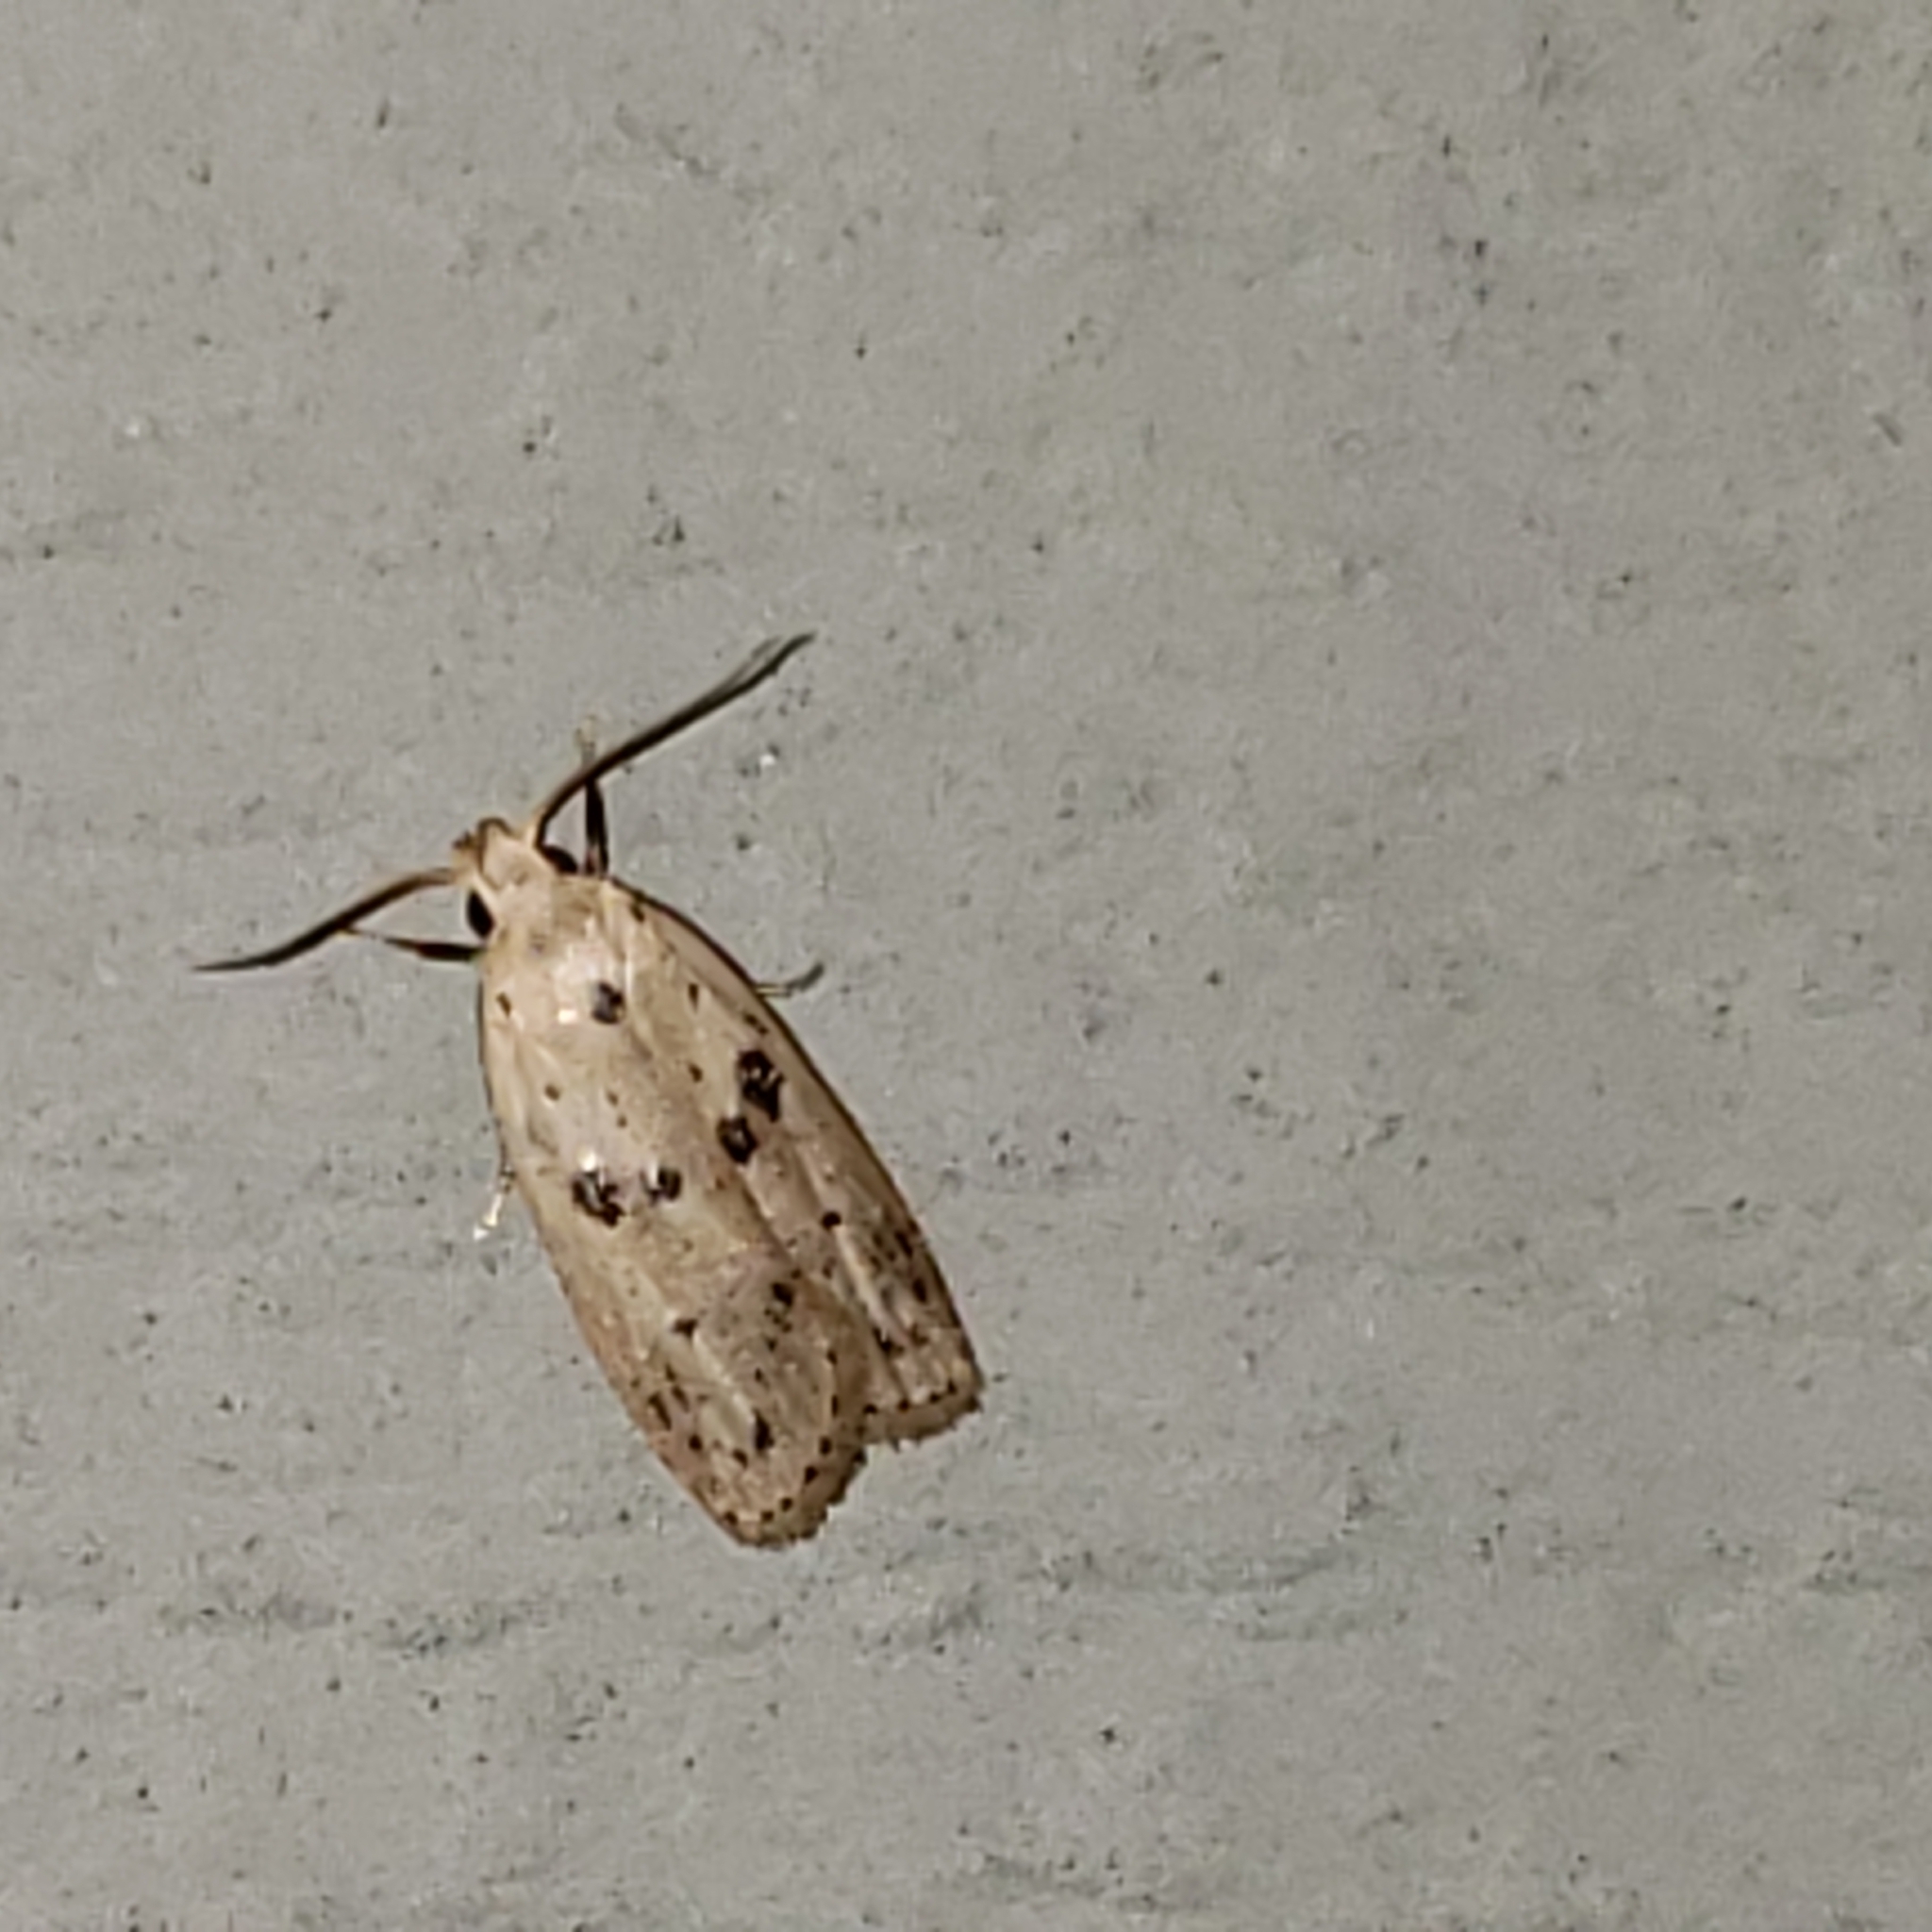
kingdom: Animalia
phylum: Arthropoda
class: Insecta
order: Lepidoptera
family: Peleopodidae
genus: Scythropiodes
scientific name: Scythropiodes issikii
